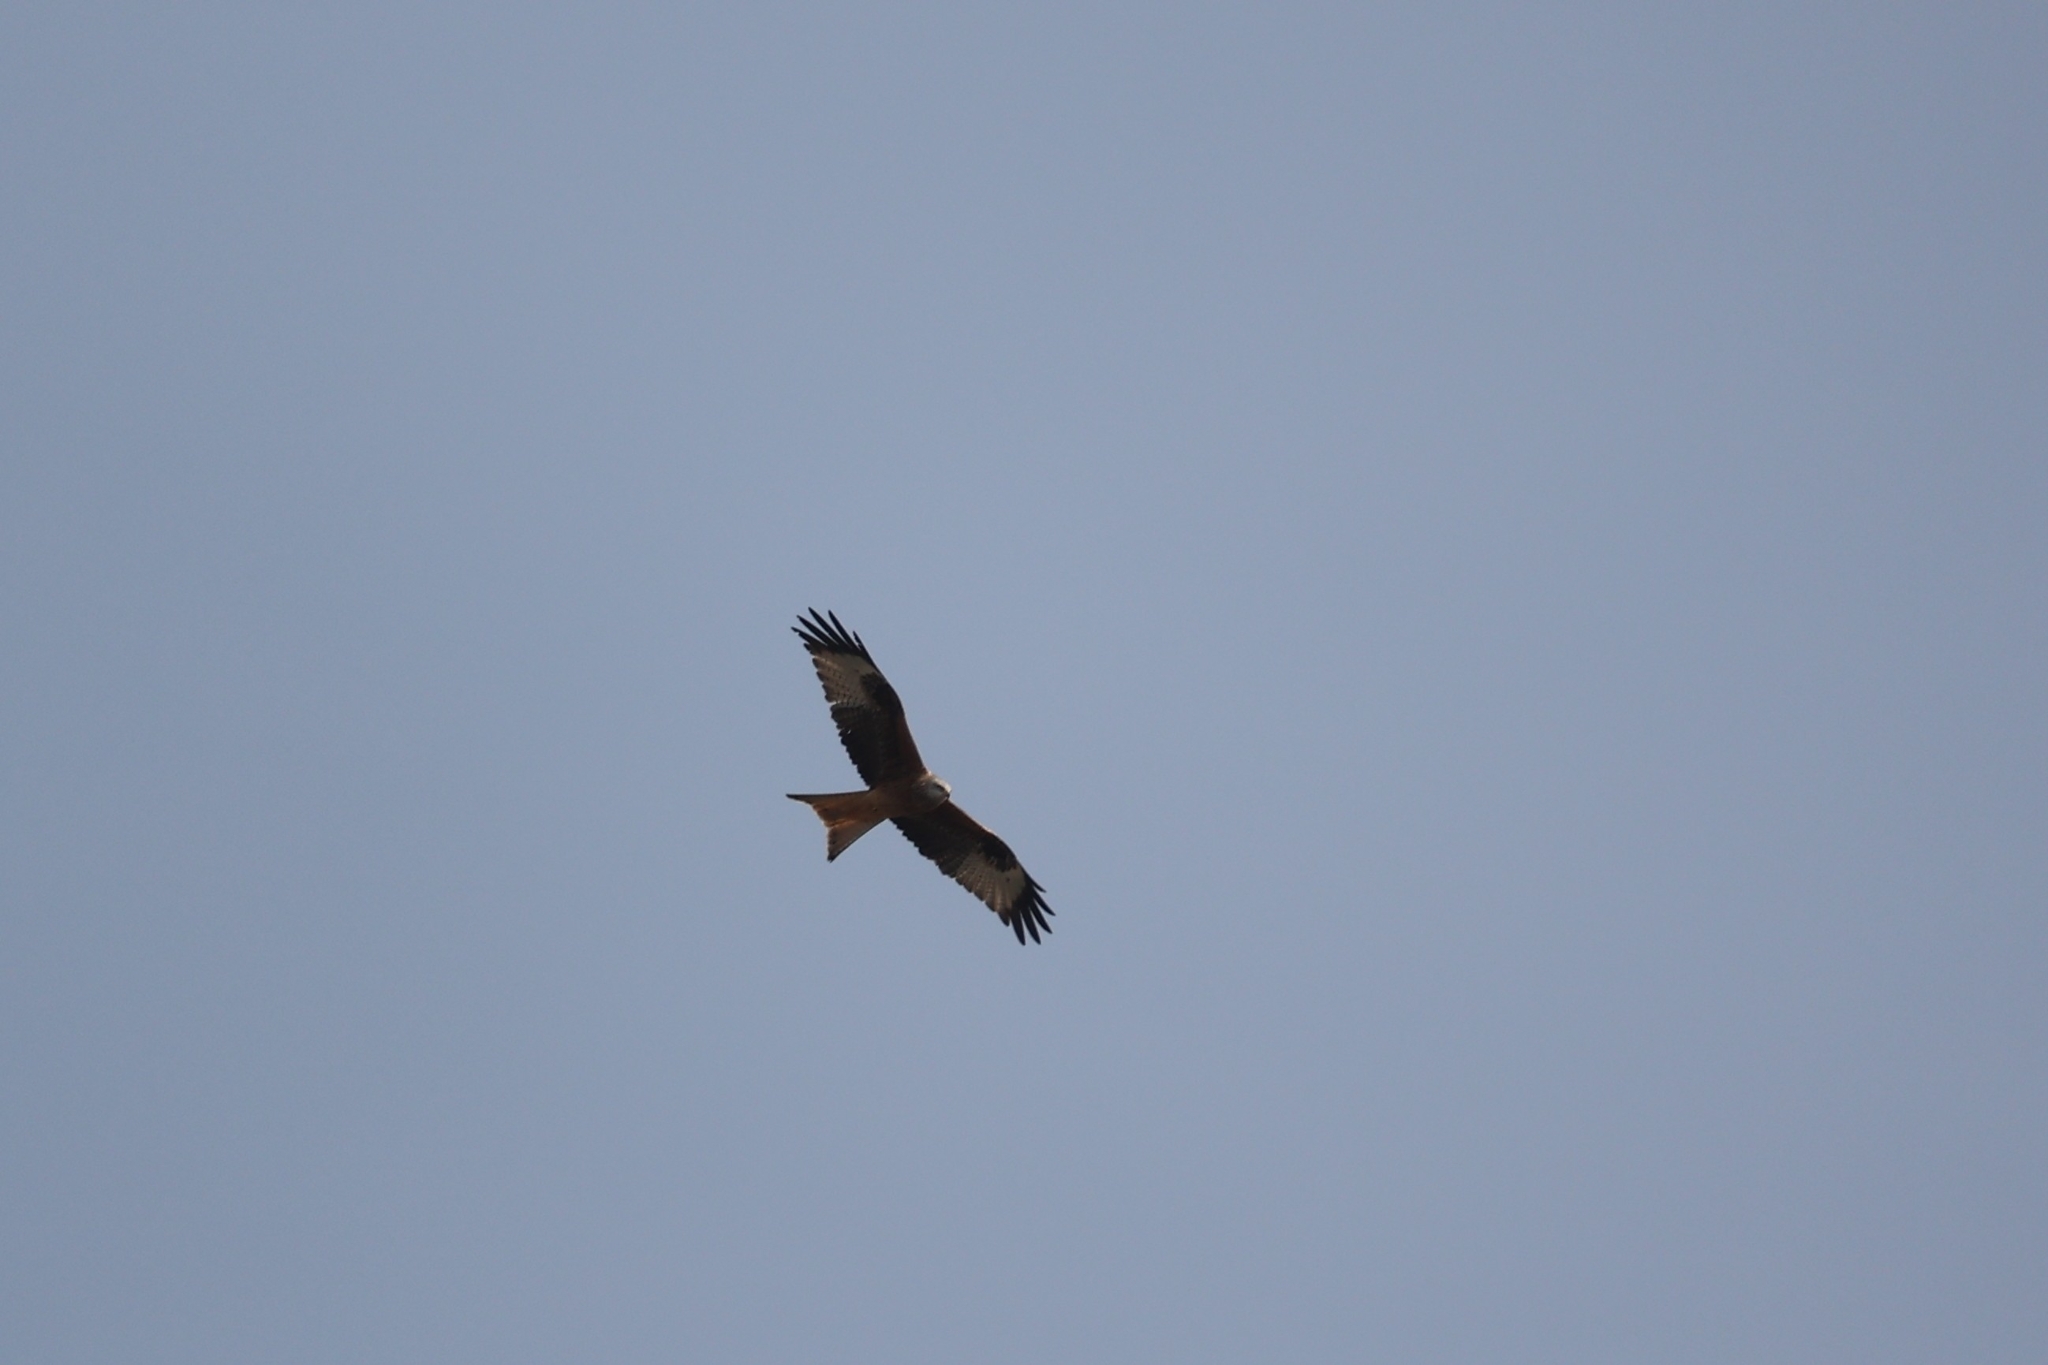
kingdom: Animalia
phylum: Chordata
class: Aves
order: Accipitriformes
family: Accipitridae
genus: Milvus
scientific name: Milvus milvus
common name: Red kite
